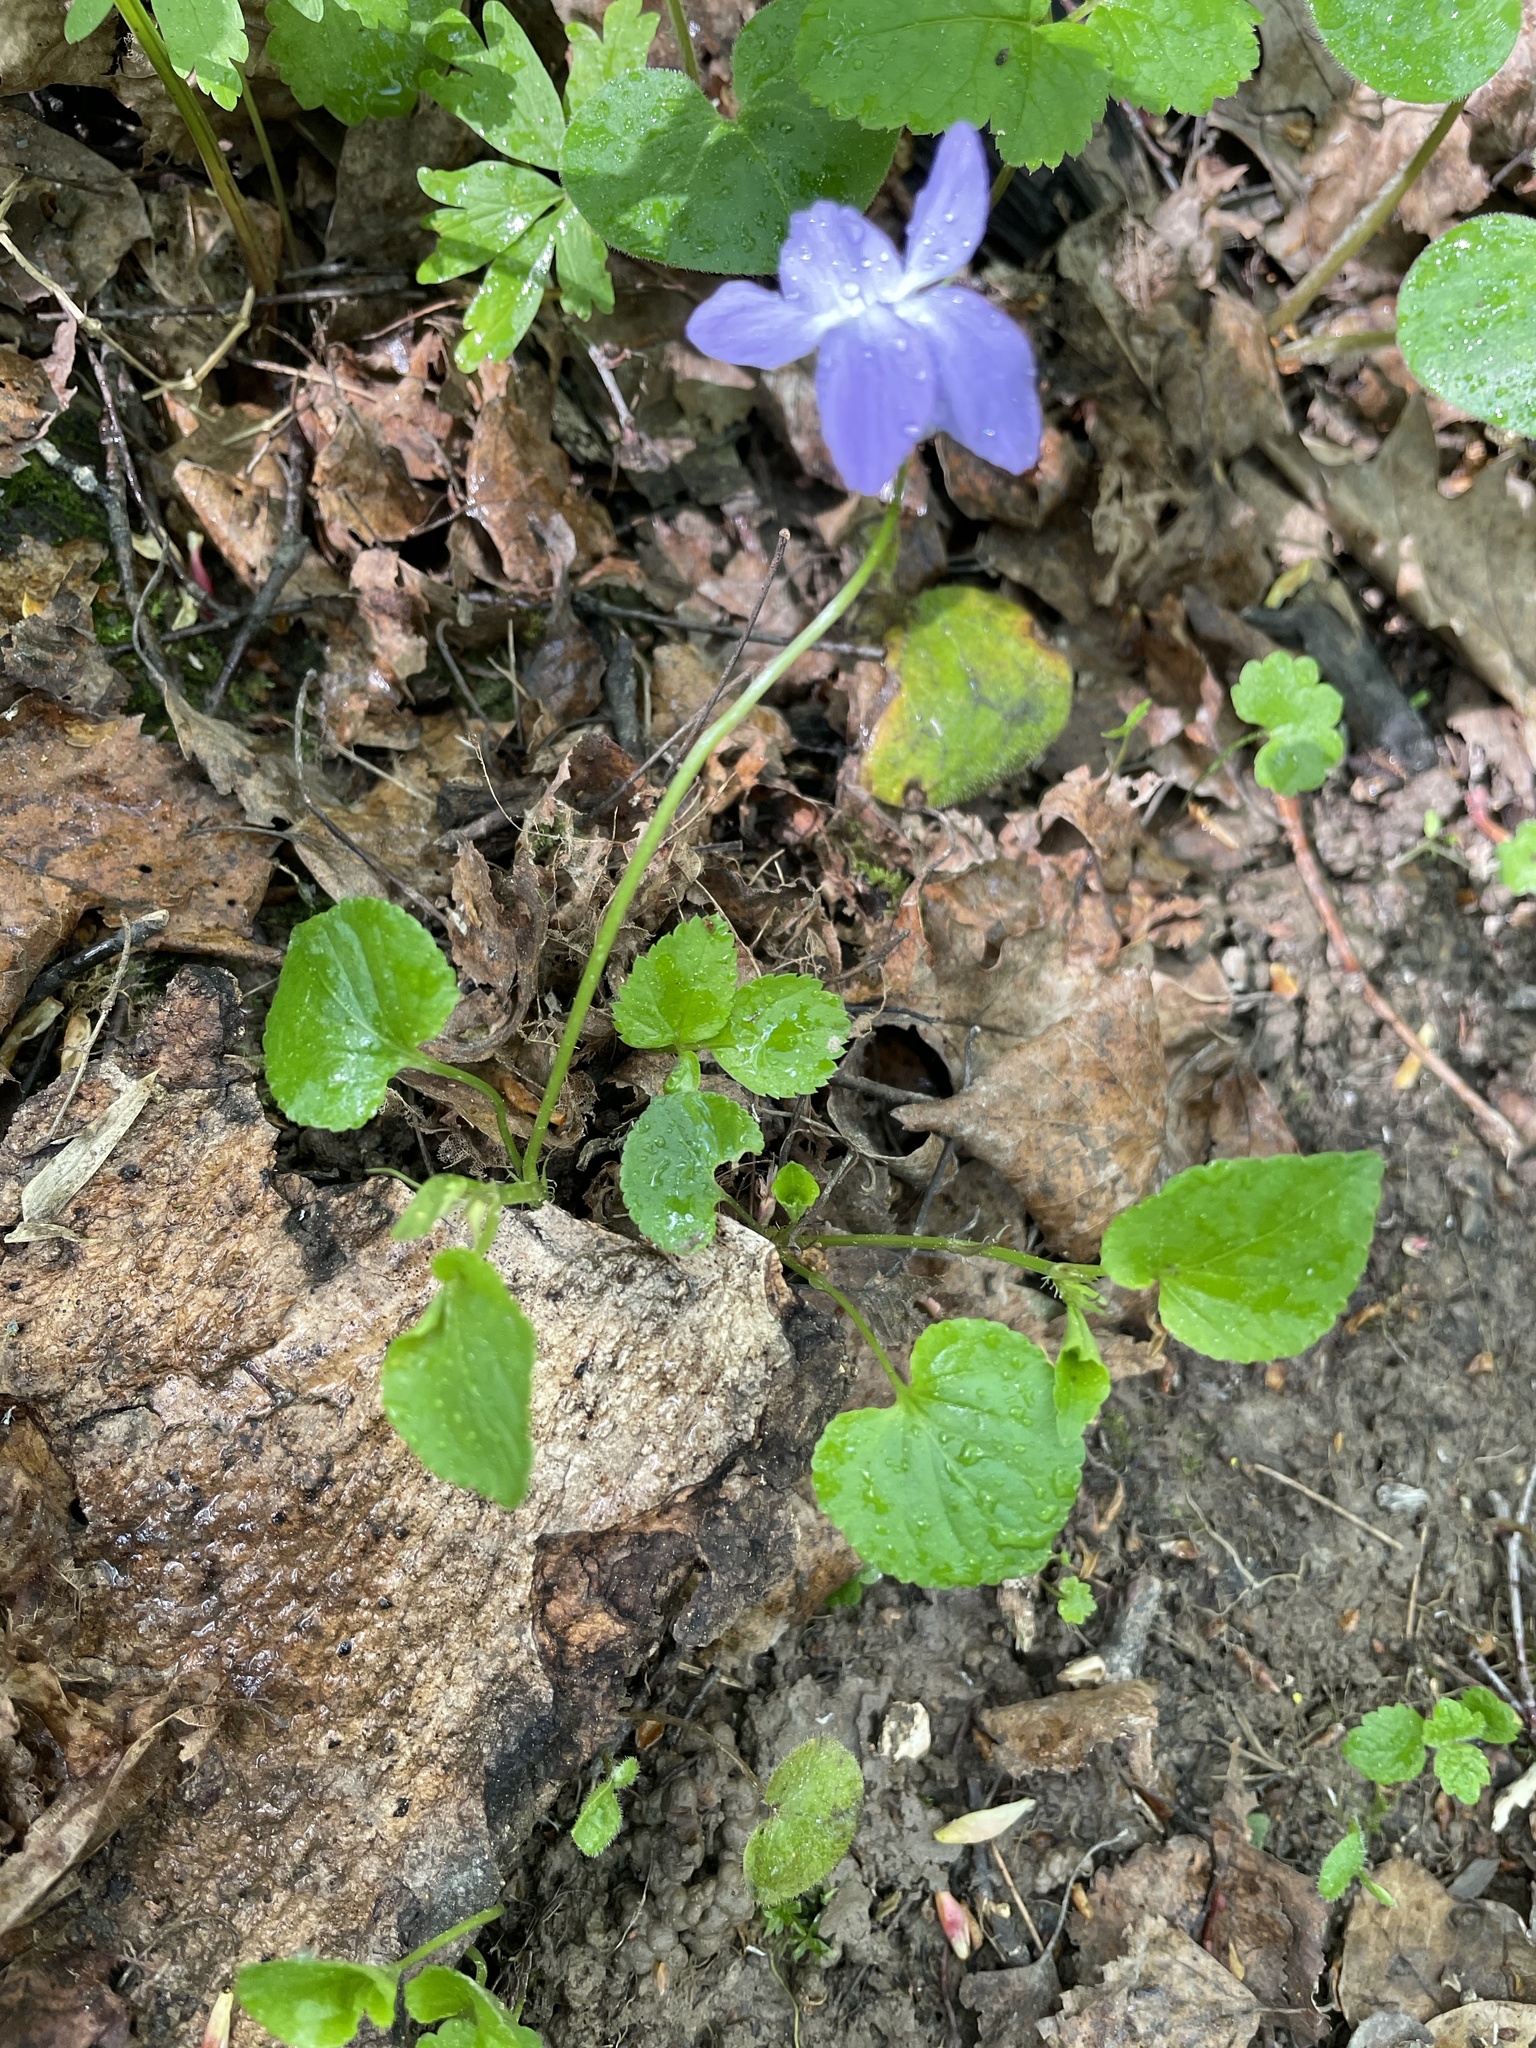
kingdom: Plantae
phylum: Tracheophyta
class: Magnoliopsida
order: Malpighiales
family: Violaceae
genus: Viola
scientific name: Viola riviniana
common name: Common dog-violet
